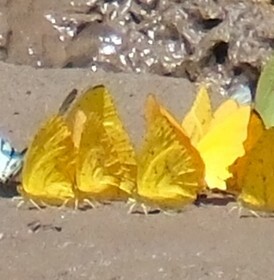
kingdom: Animalia
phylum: Arthropoda
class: Insecta
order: Lepidoptera
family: Pieridae
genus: Phoebis
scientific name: Phoebis argante
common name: Apricot sulphur
